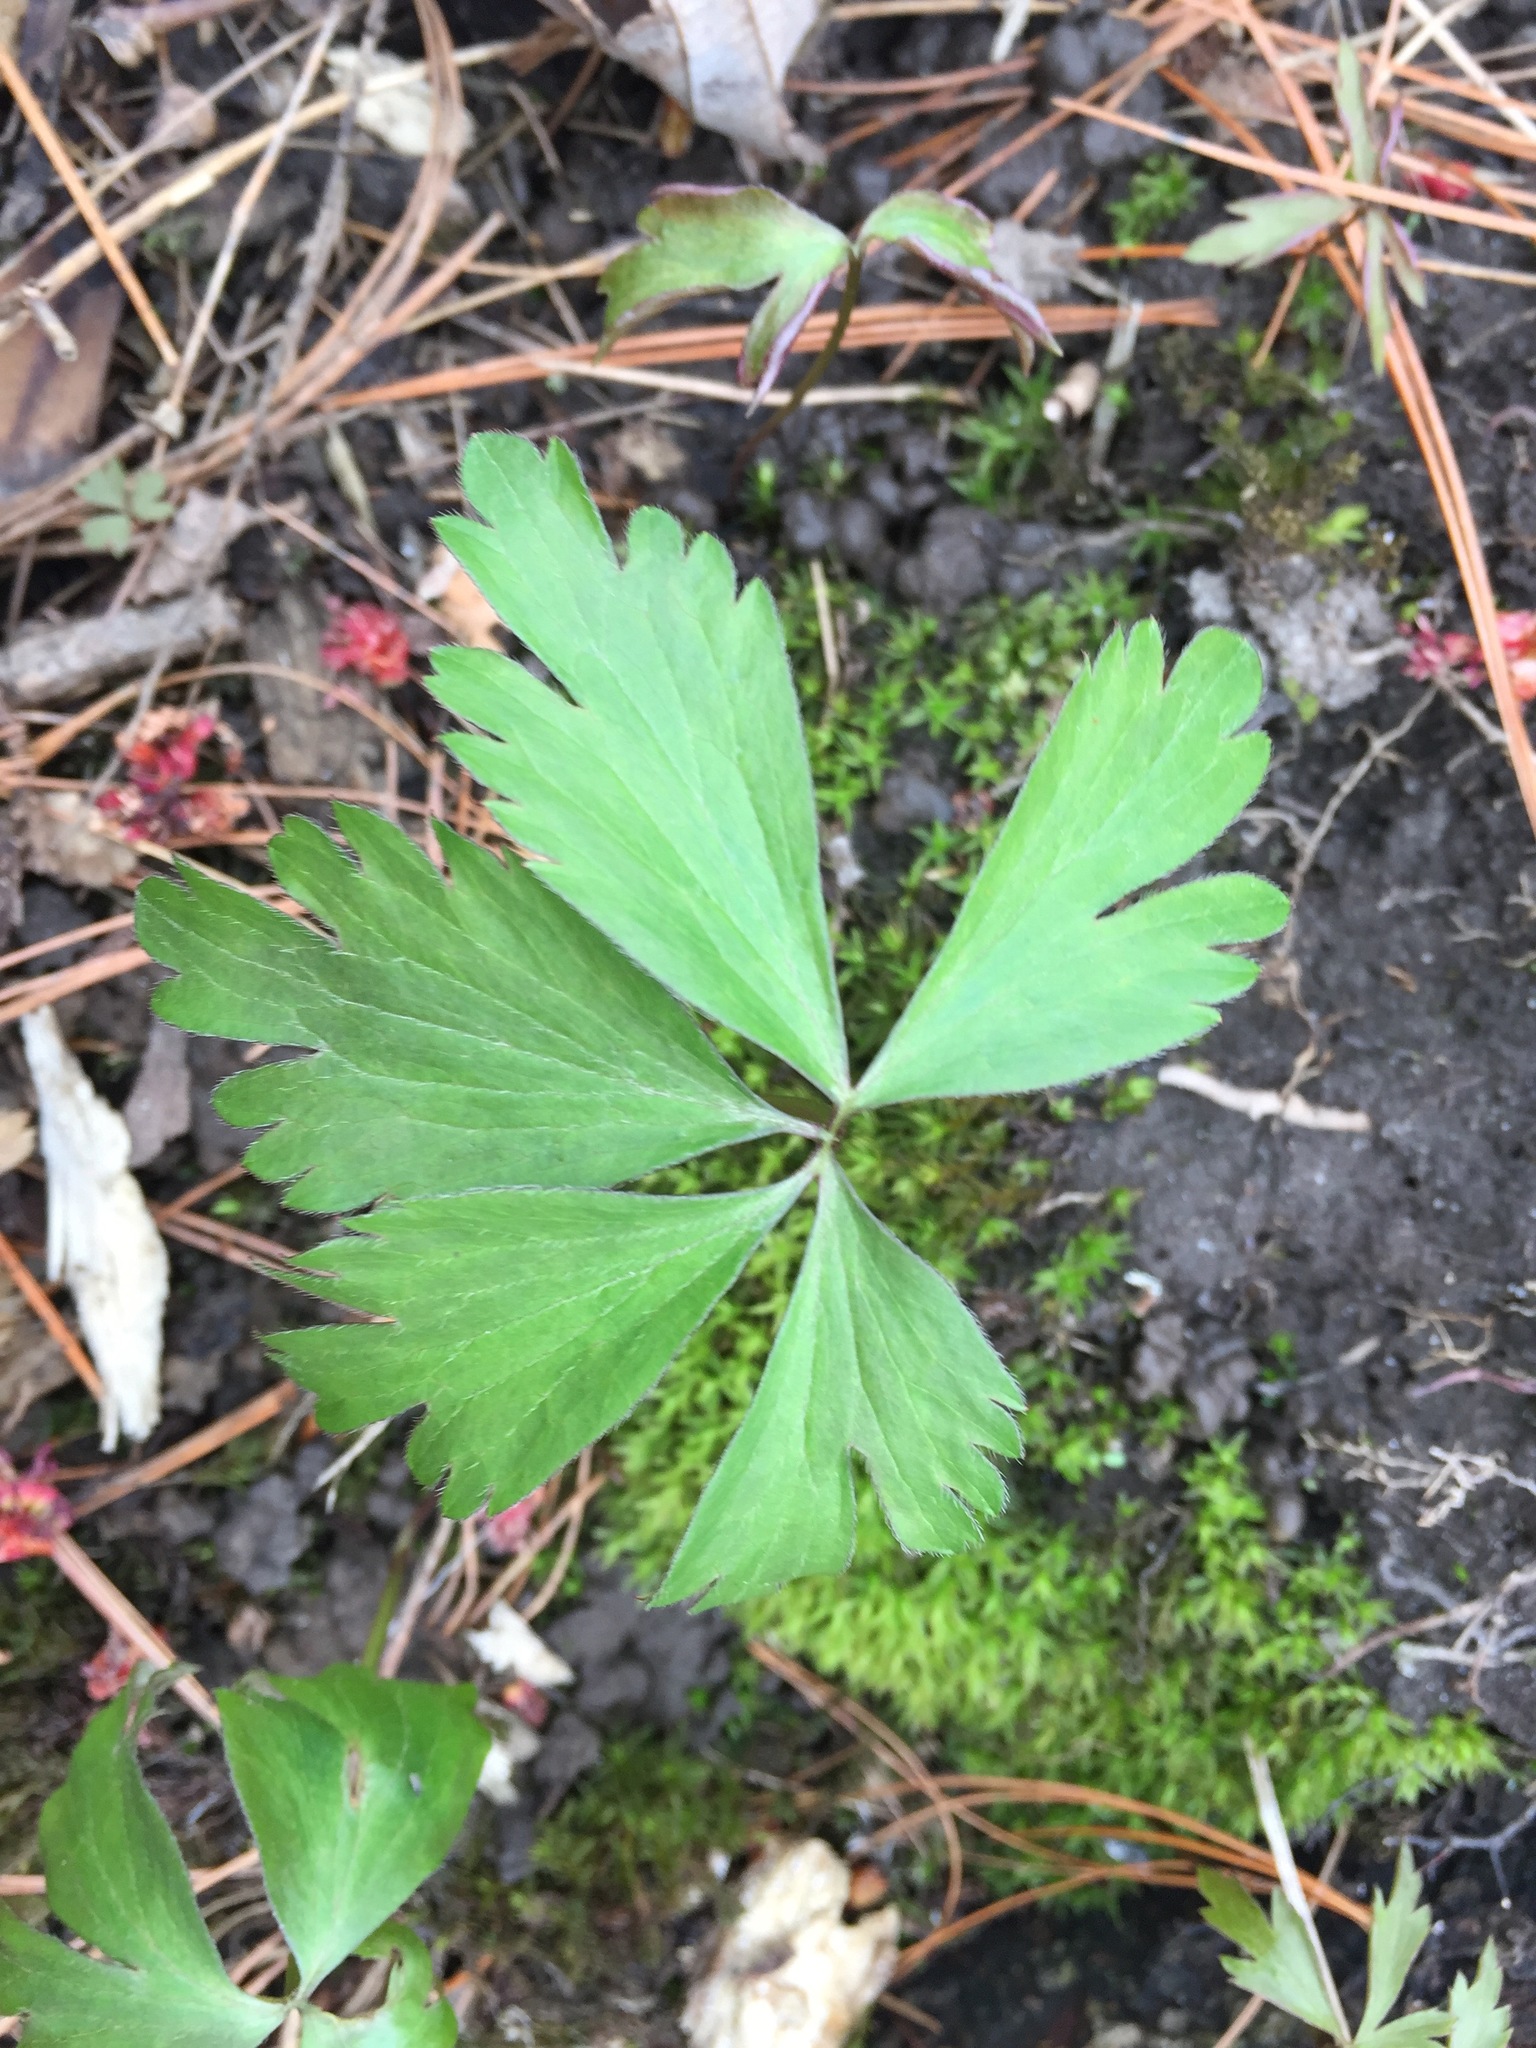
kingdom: Plantae
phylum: Tracheophyta
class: Magnoliopsida
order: Ranunculales
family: Ranunculaceae
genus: Anemone
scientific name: Anemone quinquefolia
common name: Wood anemone
